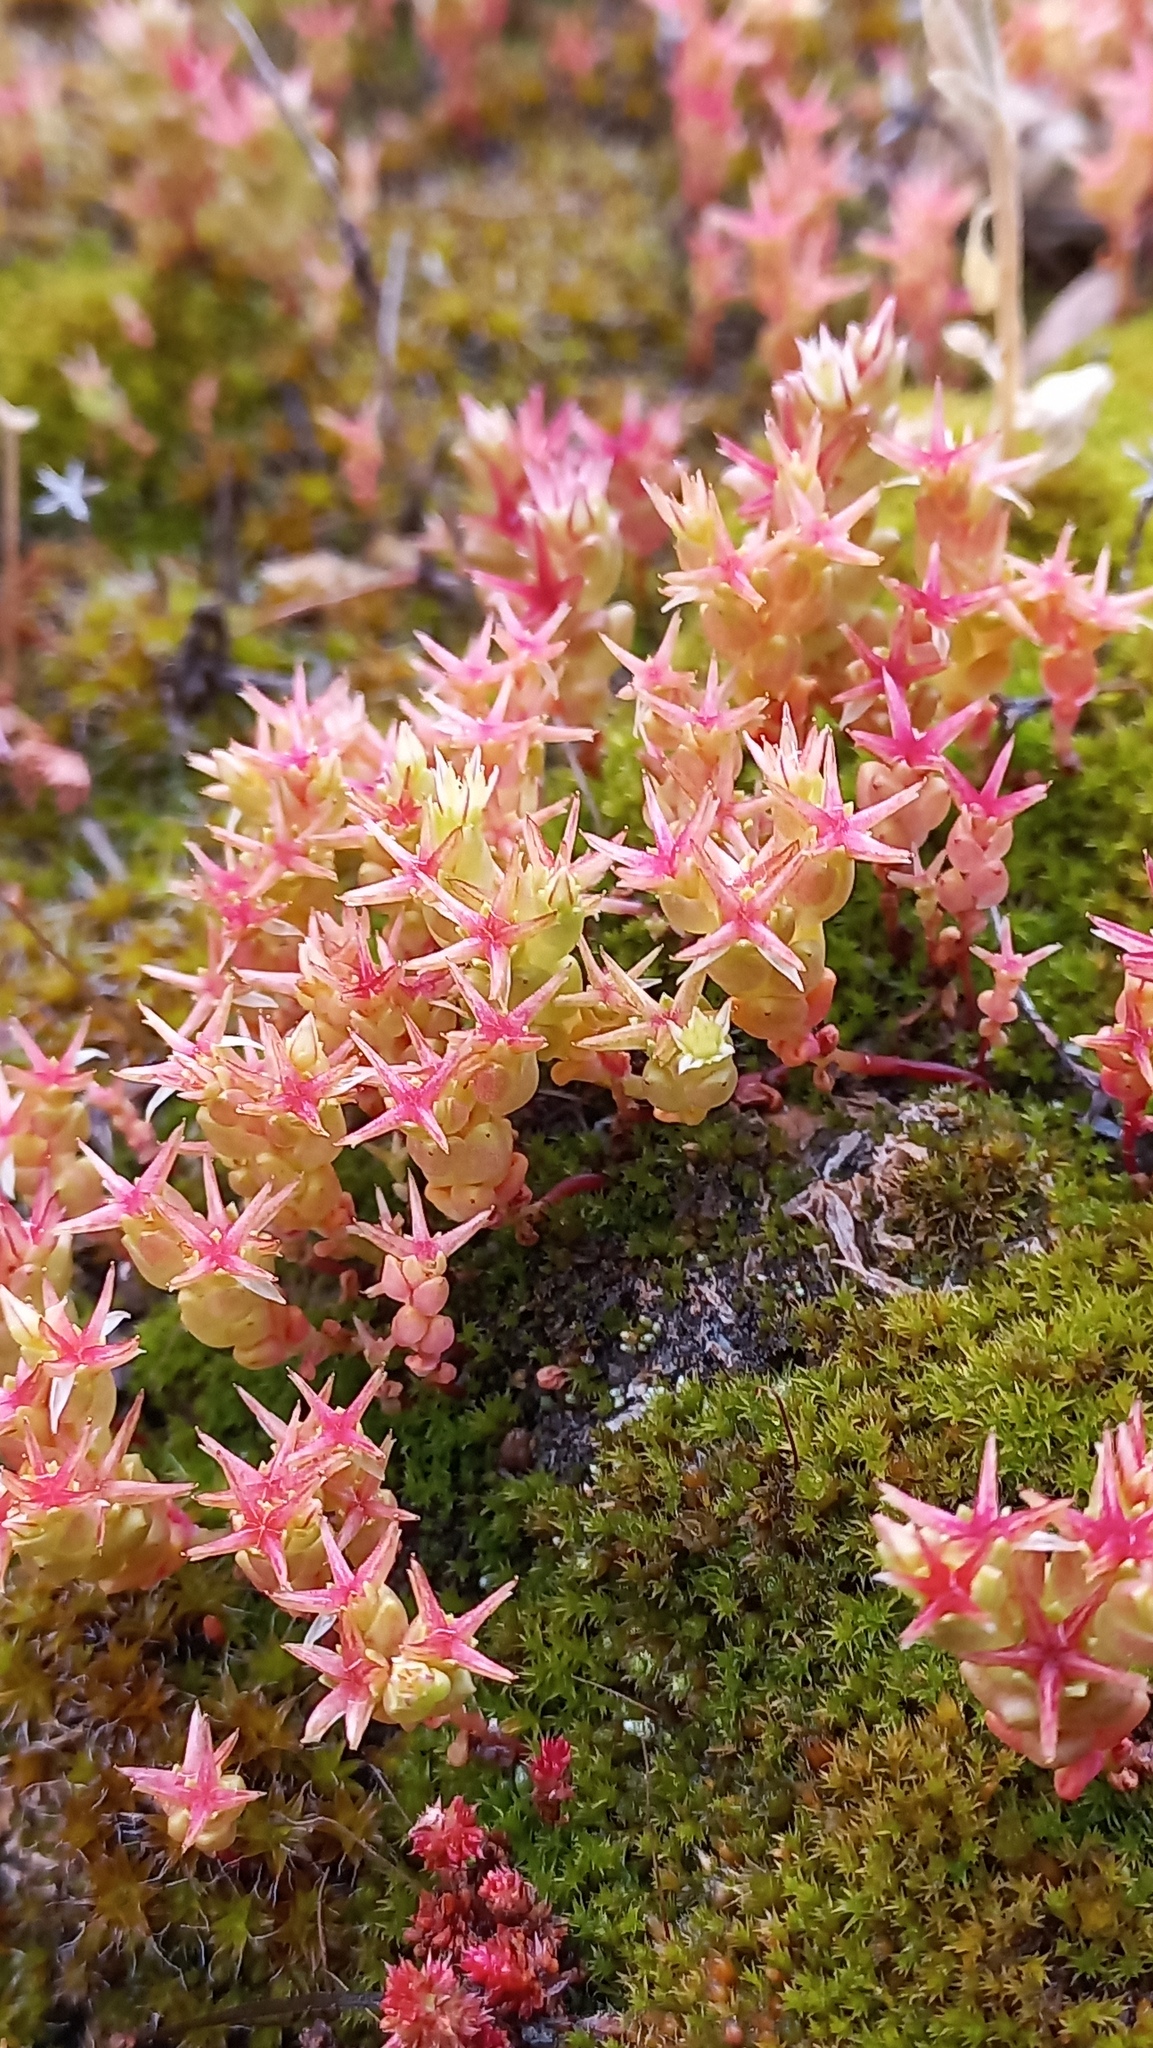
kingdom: Plantae
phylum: Tracheophyta
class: Magnoliopsida
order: Saxifragales
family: Crassulaceae
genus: Sedum
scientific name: Sedum cespitosum
